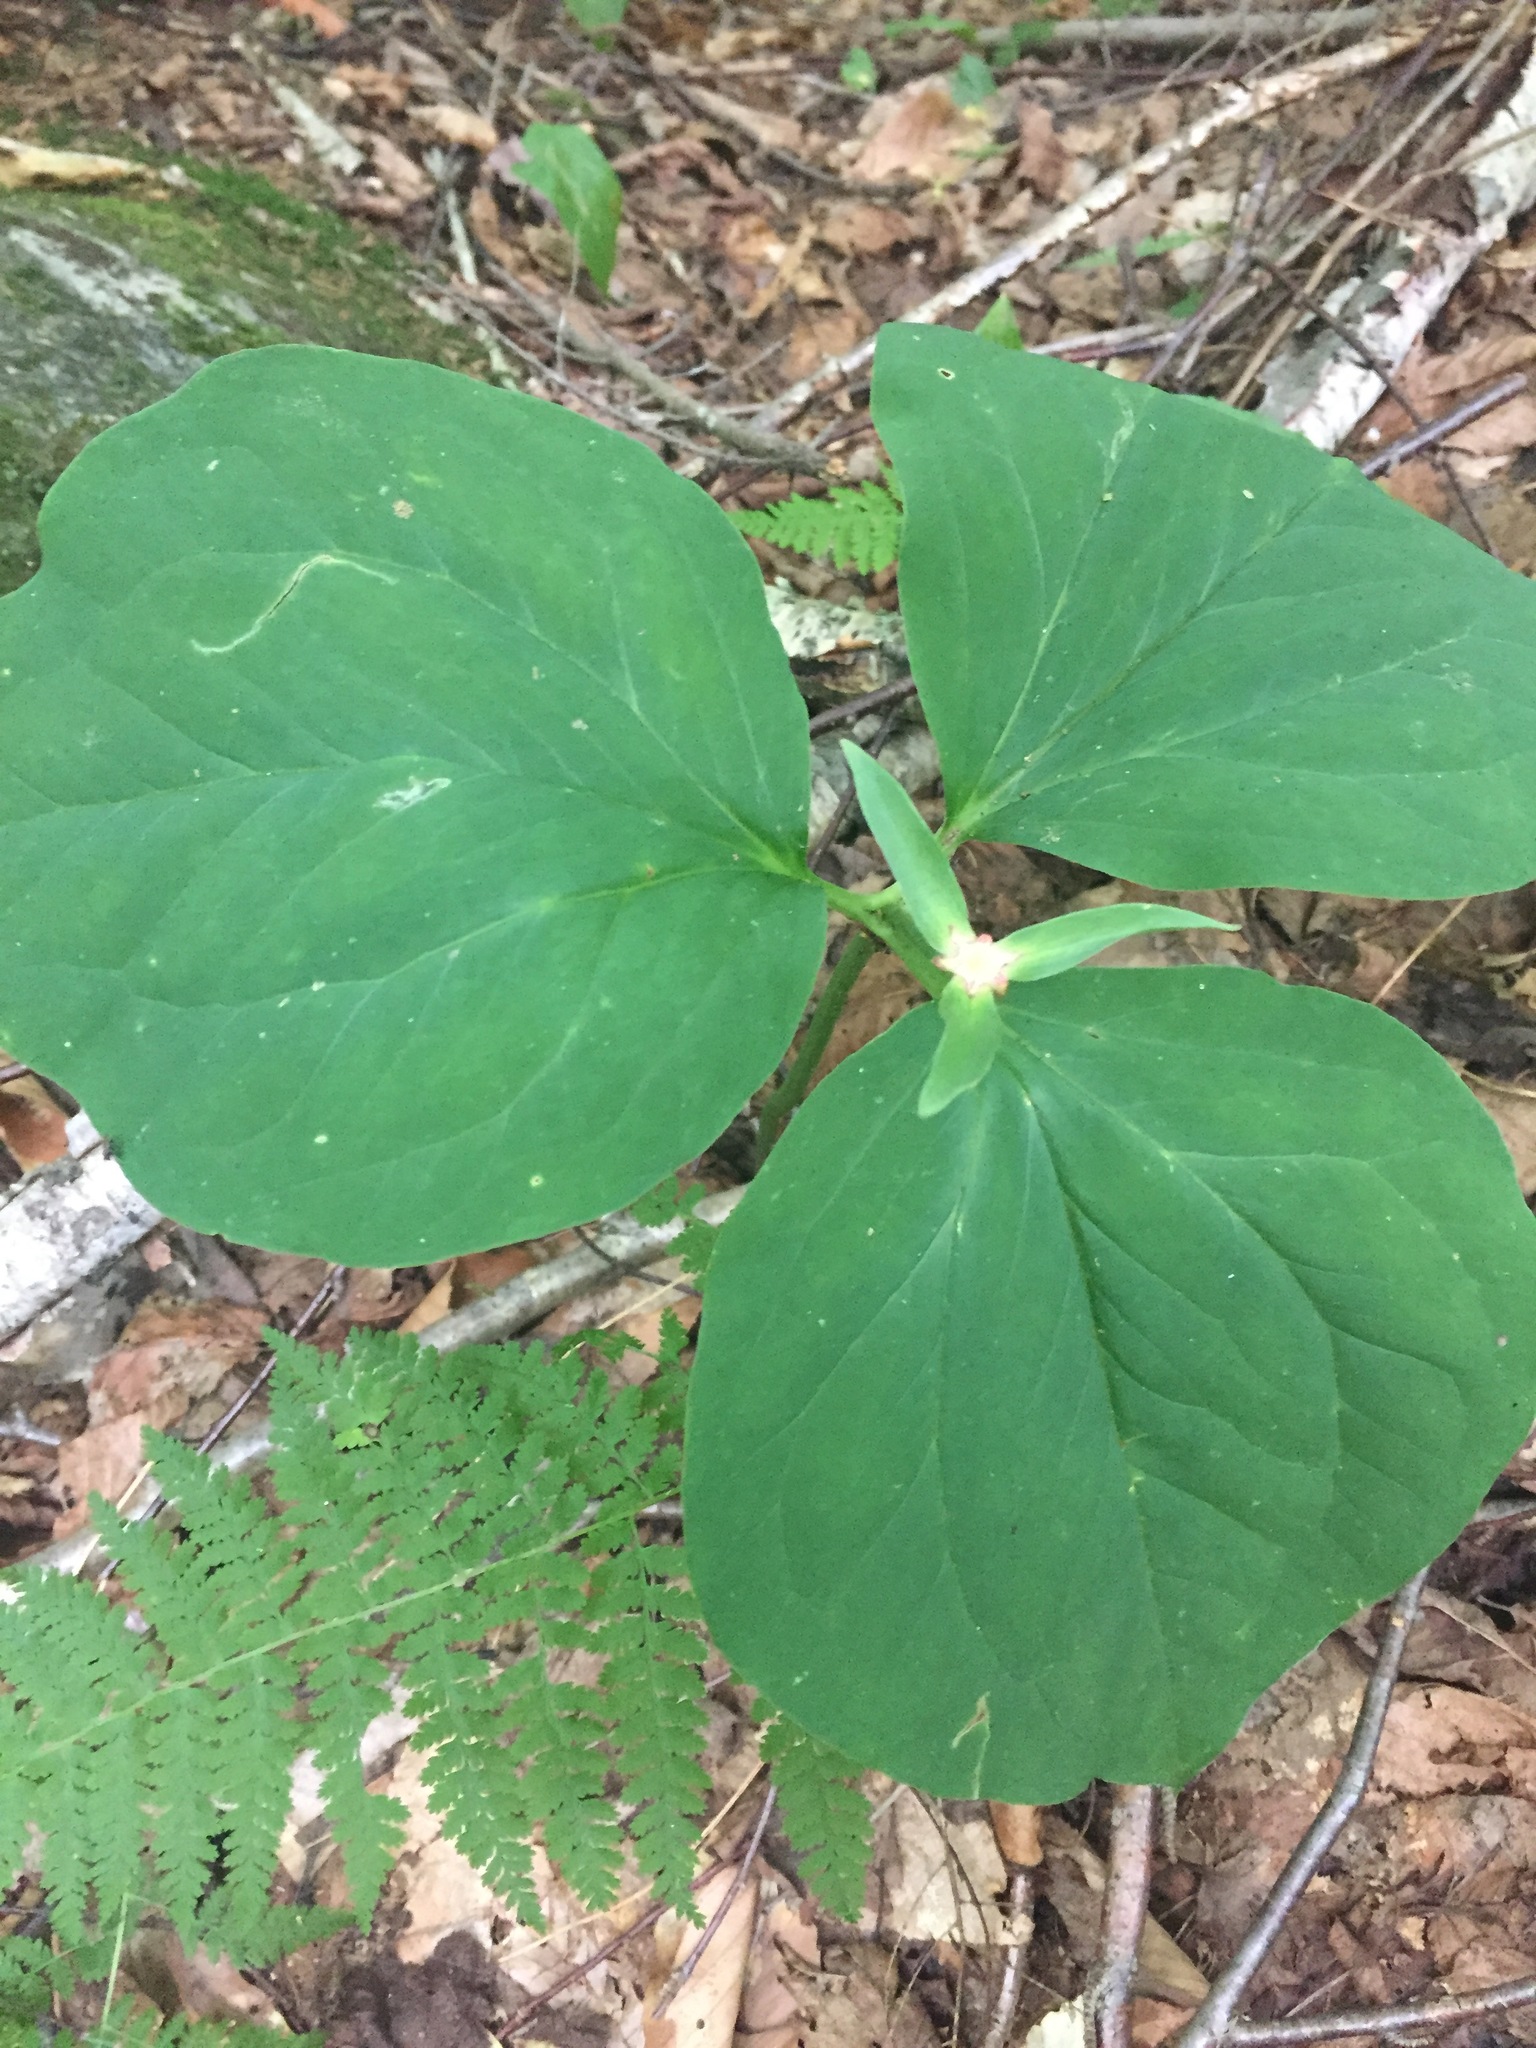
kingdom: Plantae
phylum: Tracheophyta
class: Liliopsida
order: Liliales
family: Melanthiaceae
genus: Trillium
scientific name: Trillium undulatum
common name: Paint trillium
